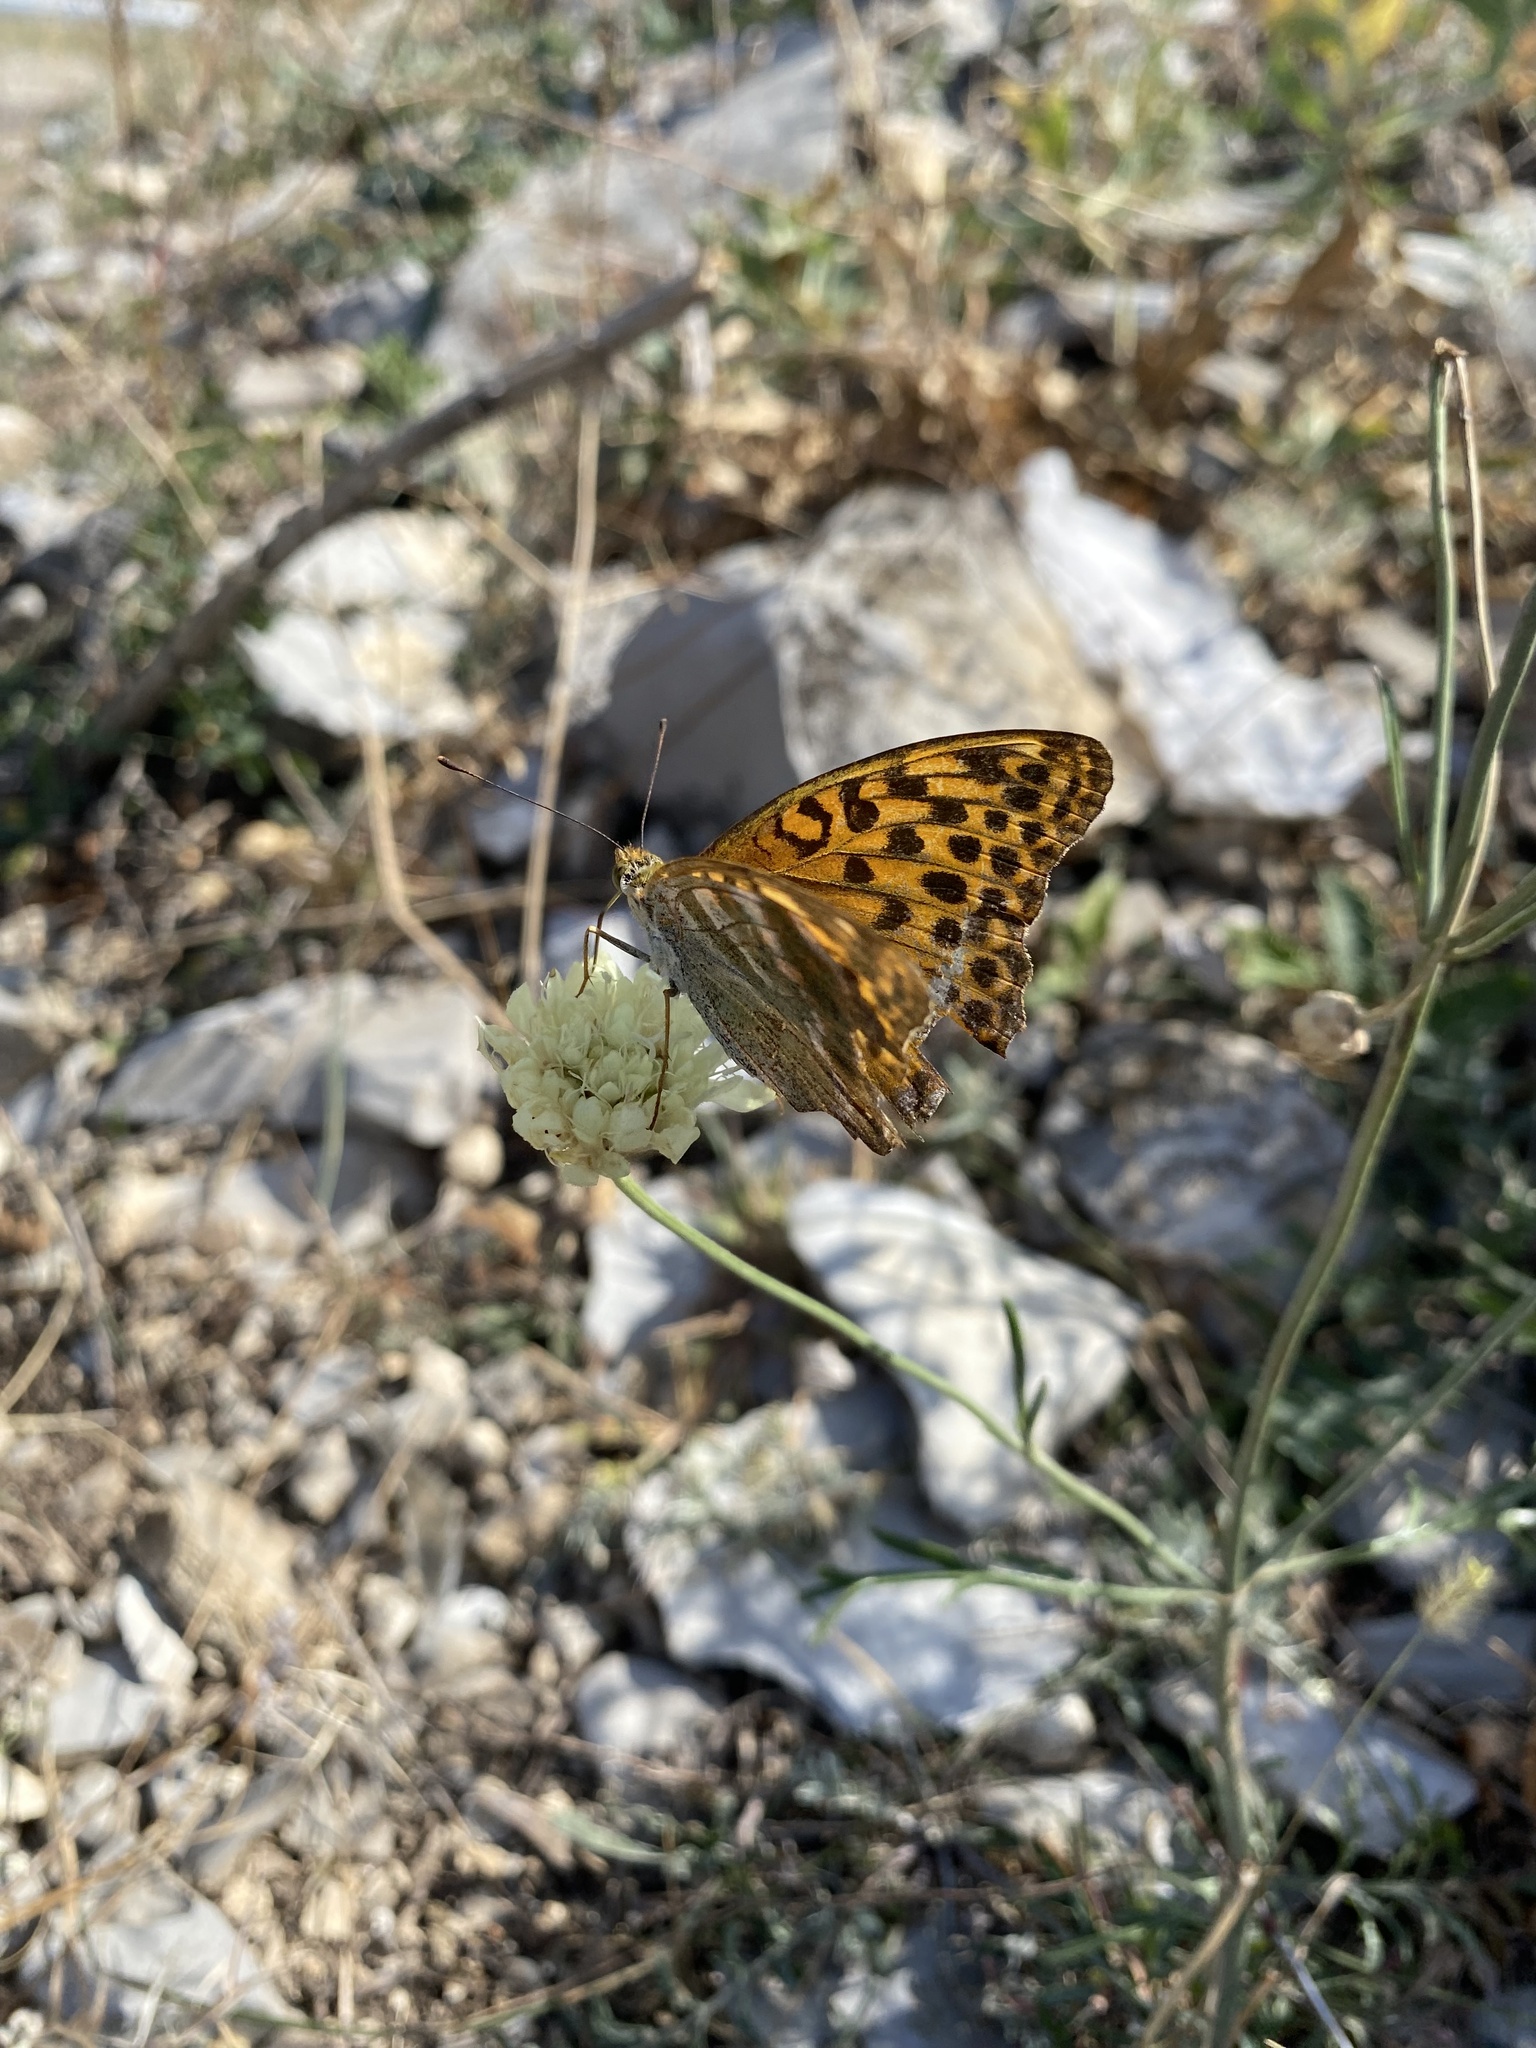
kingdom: Animalia
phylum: Arthropoda
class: Insecta
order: Lepidoptera
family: Nymphalidae
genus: Argynnis
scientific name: Argynnis paphia
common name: Silver-washed fritillary
